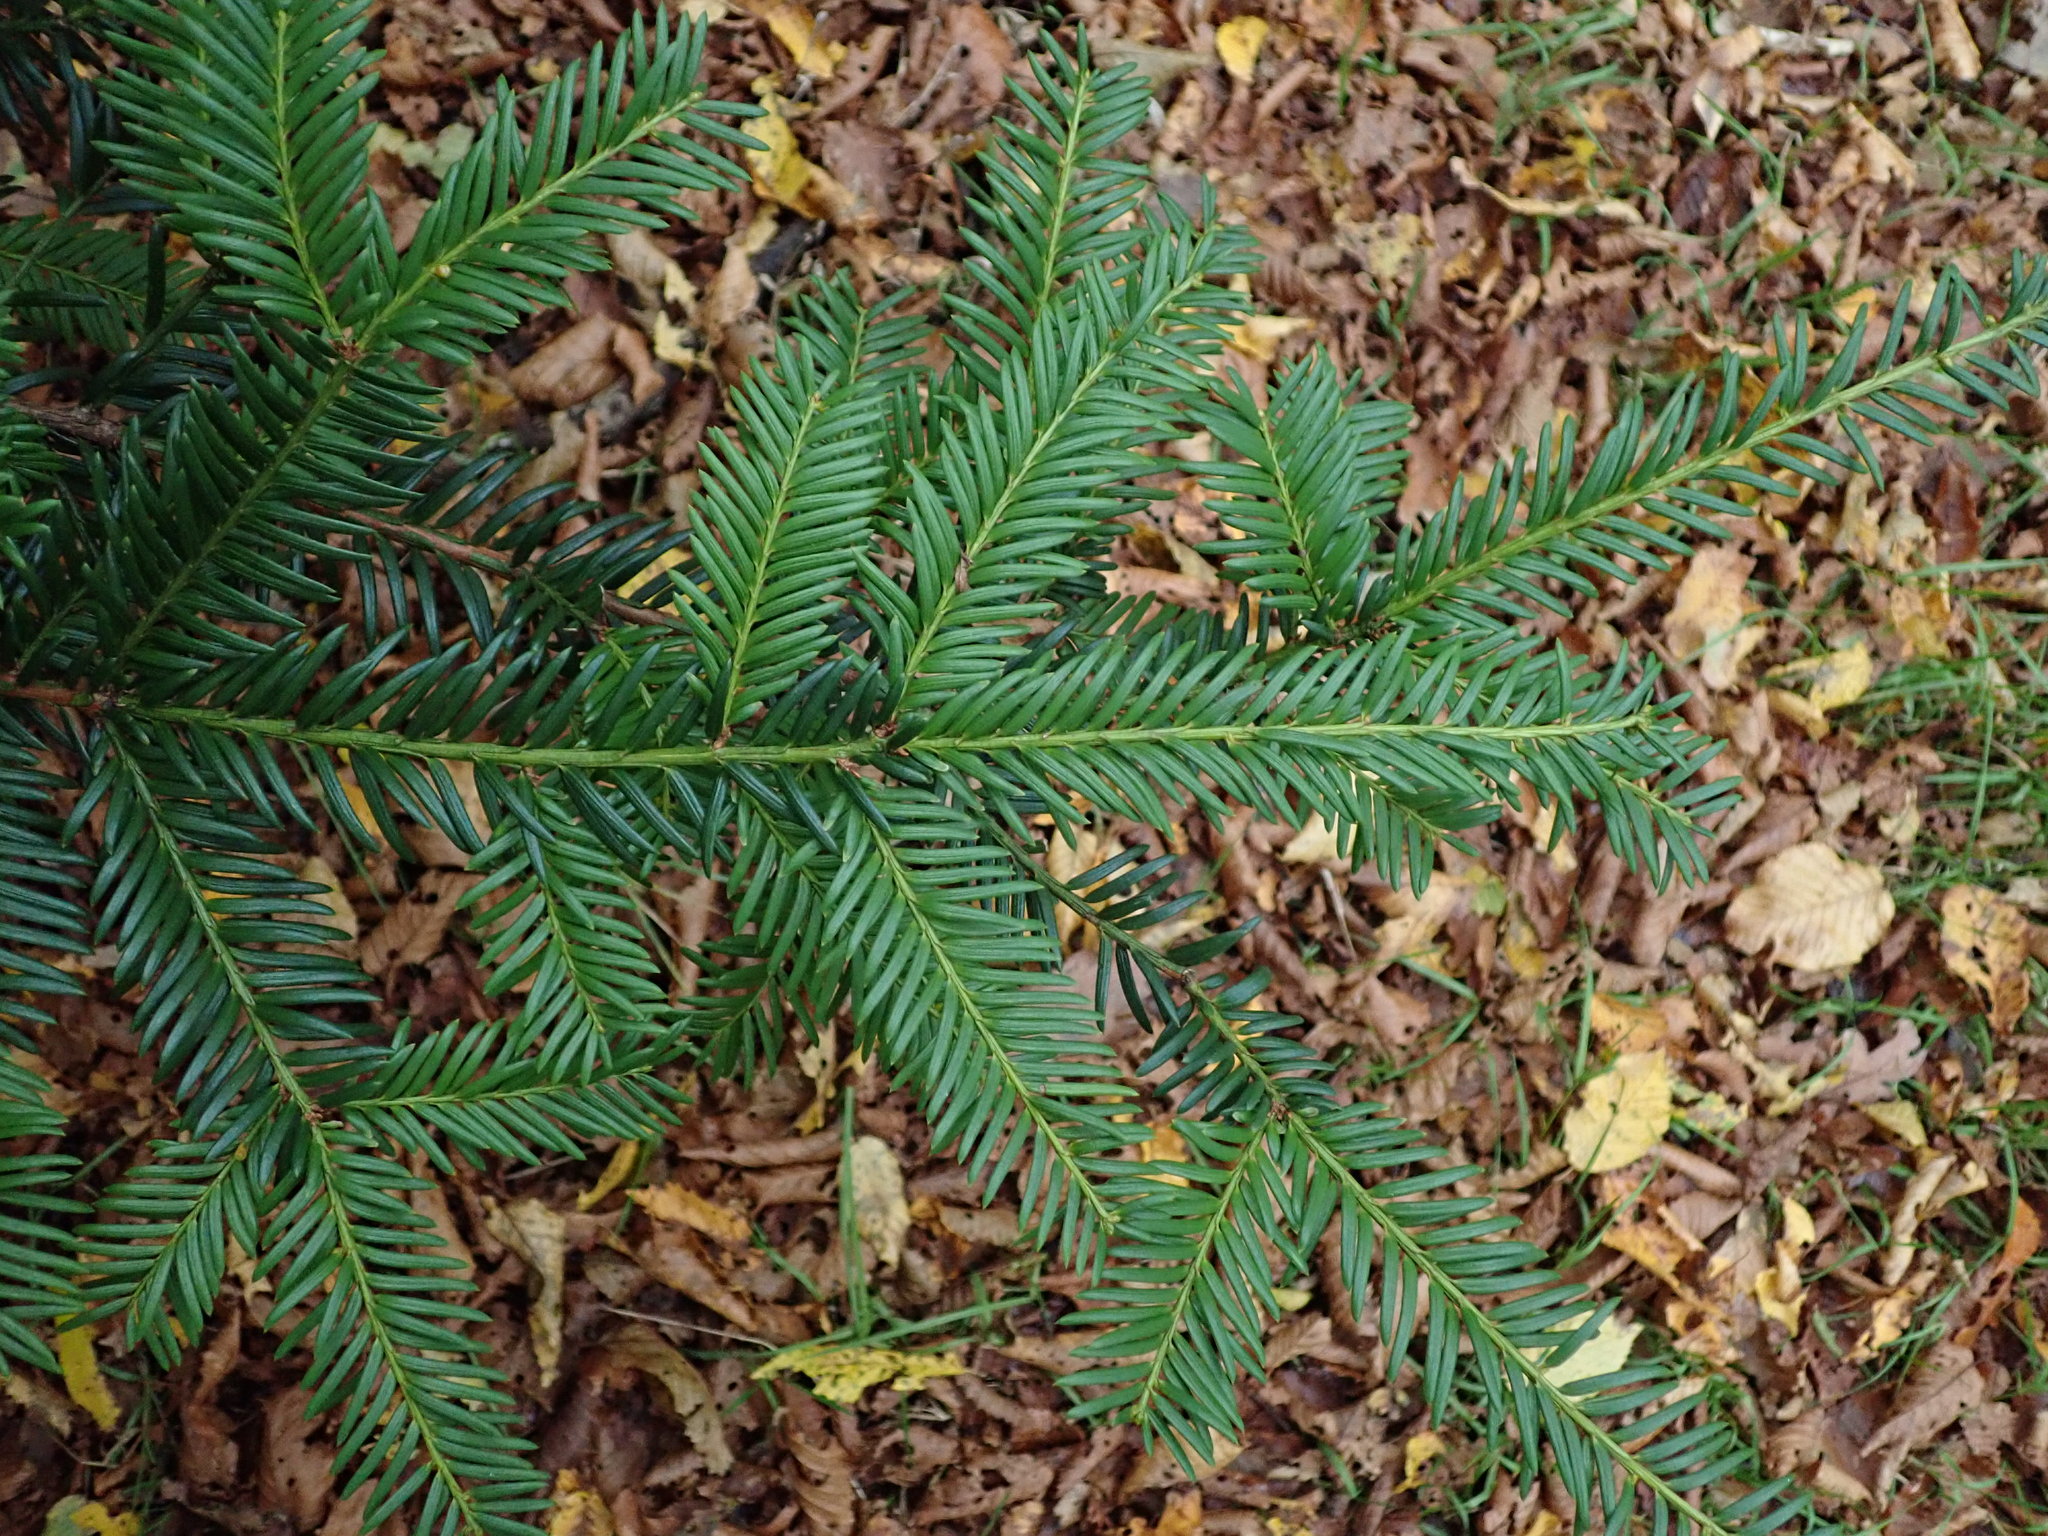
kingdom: Plantae
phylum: Tracheophyta
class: Pinopsida
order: Pinales
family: Taxaceae
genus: Taxus
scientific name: Taxus baccata
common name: Yew
